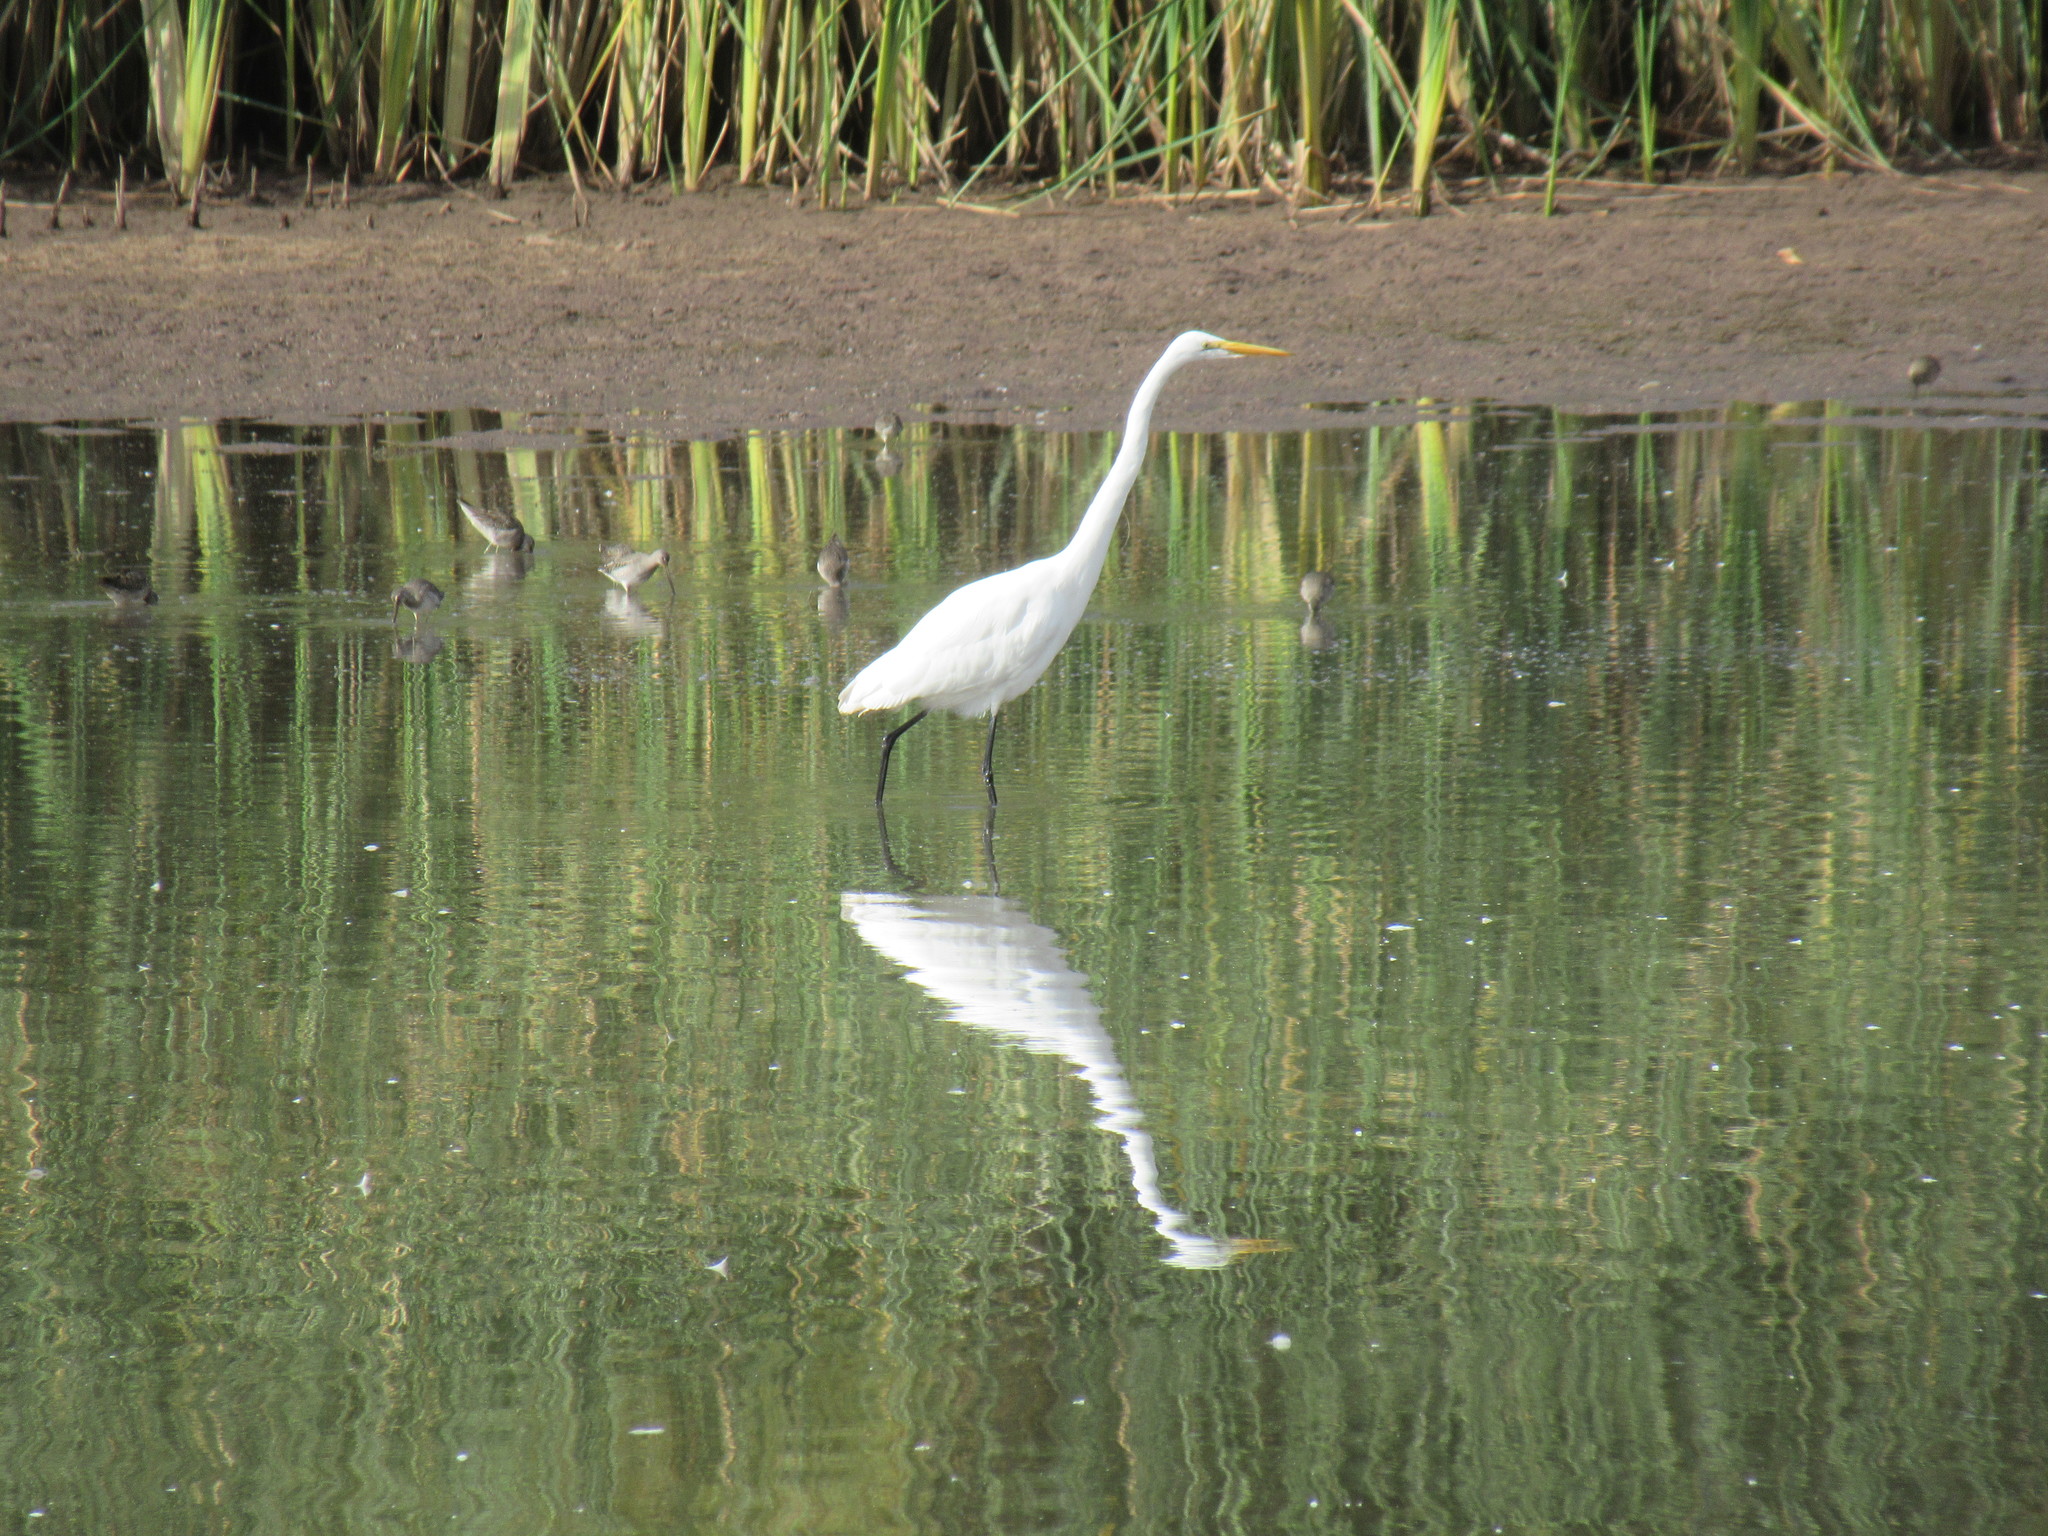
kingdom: Animalia
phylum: Chordata
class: Aves
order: Pelecaniformes
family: Ardeidae
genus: Ardea
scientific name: Ardea alba
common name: Great egret
